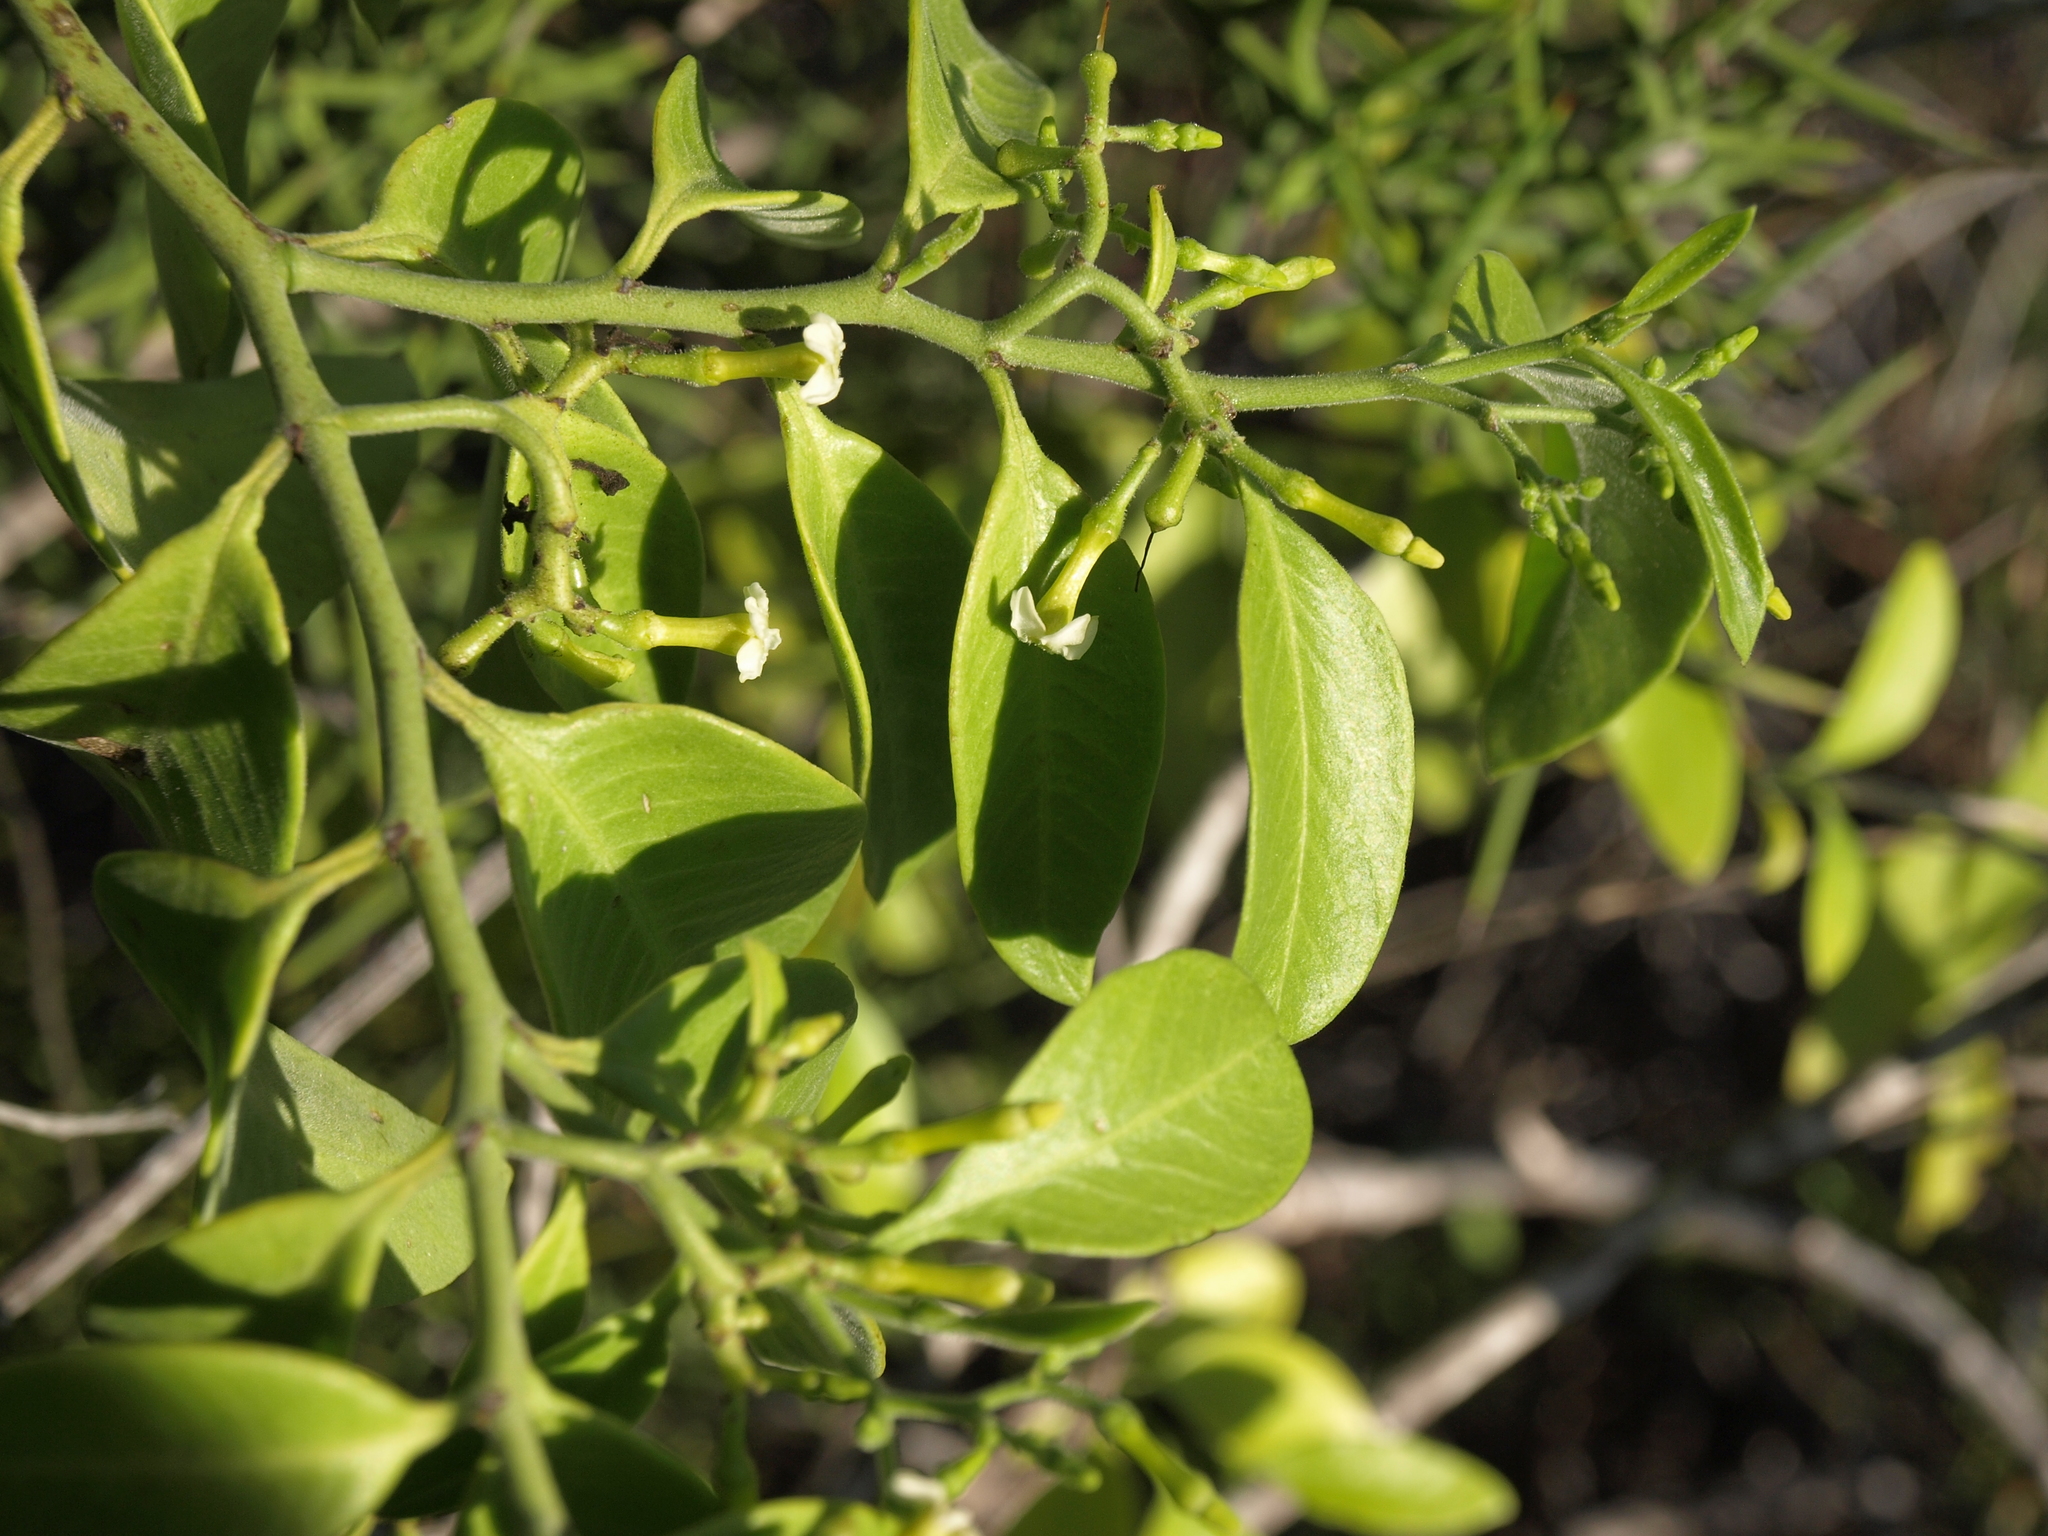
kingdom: Plantae
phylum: Tracheophyta
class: Magnoliopsida
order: Gentianales
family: Apocynaceae
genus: Vallesia
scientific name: Vallesia pubescens
